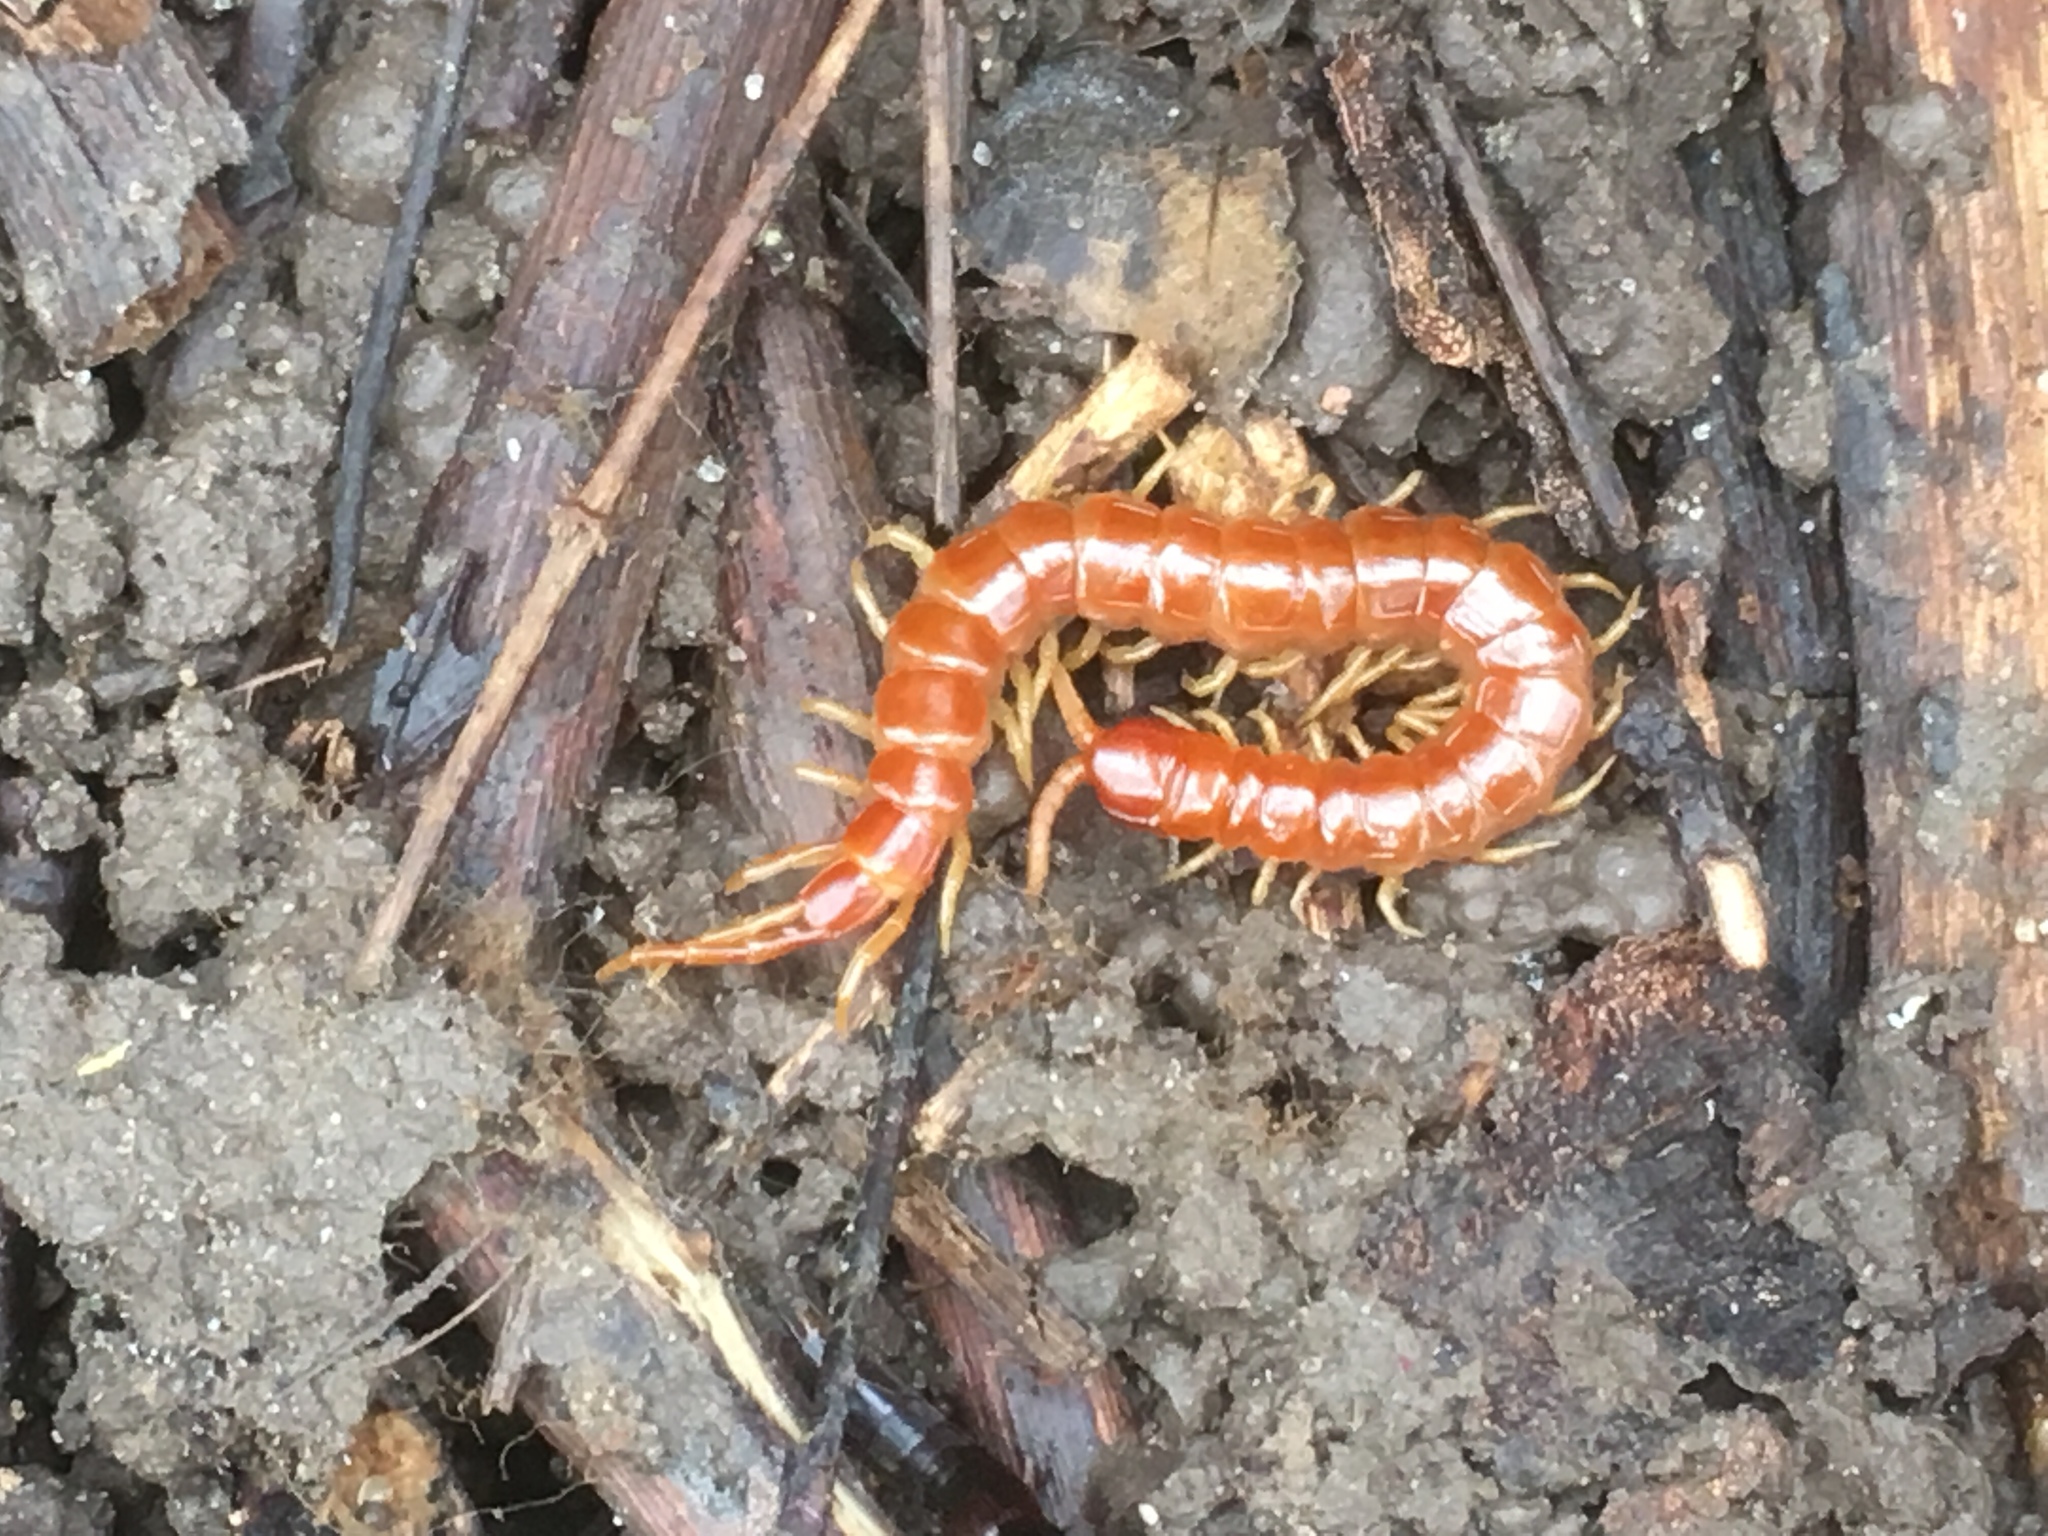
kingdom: Animalia
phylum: Arthropoda
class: Chilopoda
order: Scolopendromorpha
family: Scolopocryptopidae
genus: Scolopocryptops
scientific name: Scolopocryptops sexspinosus
